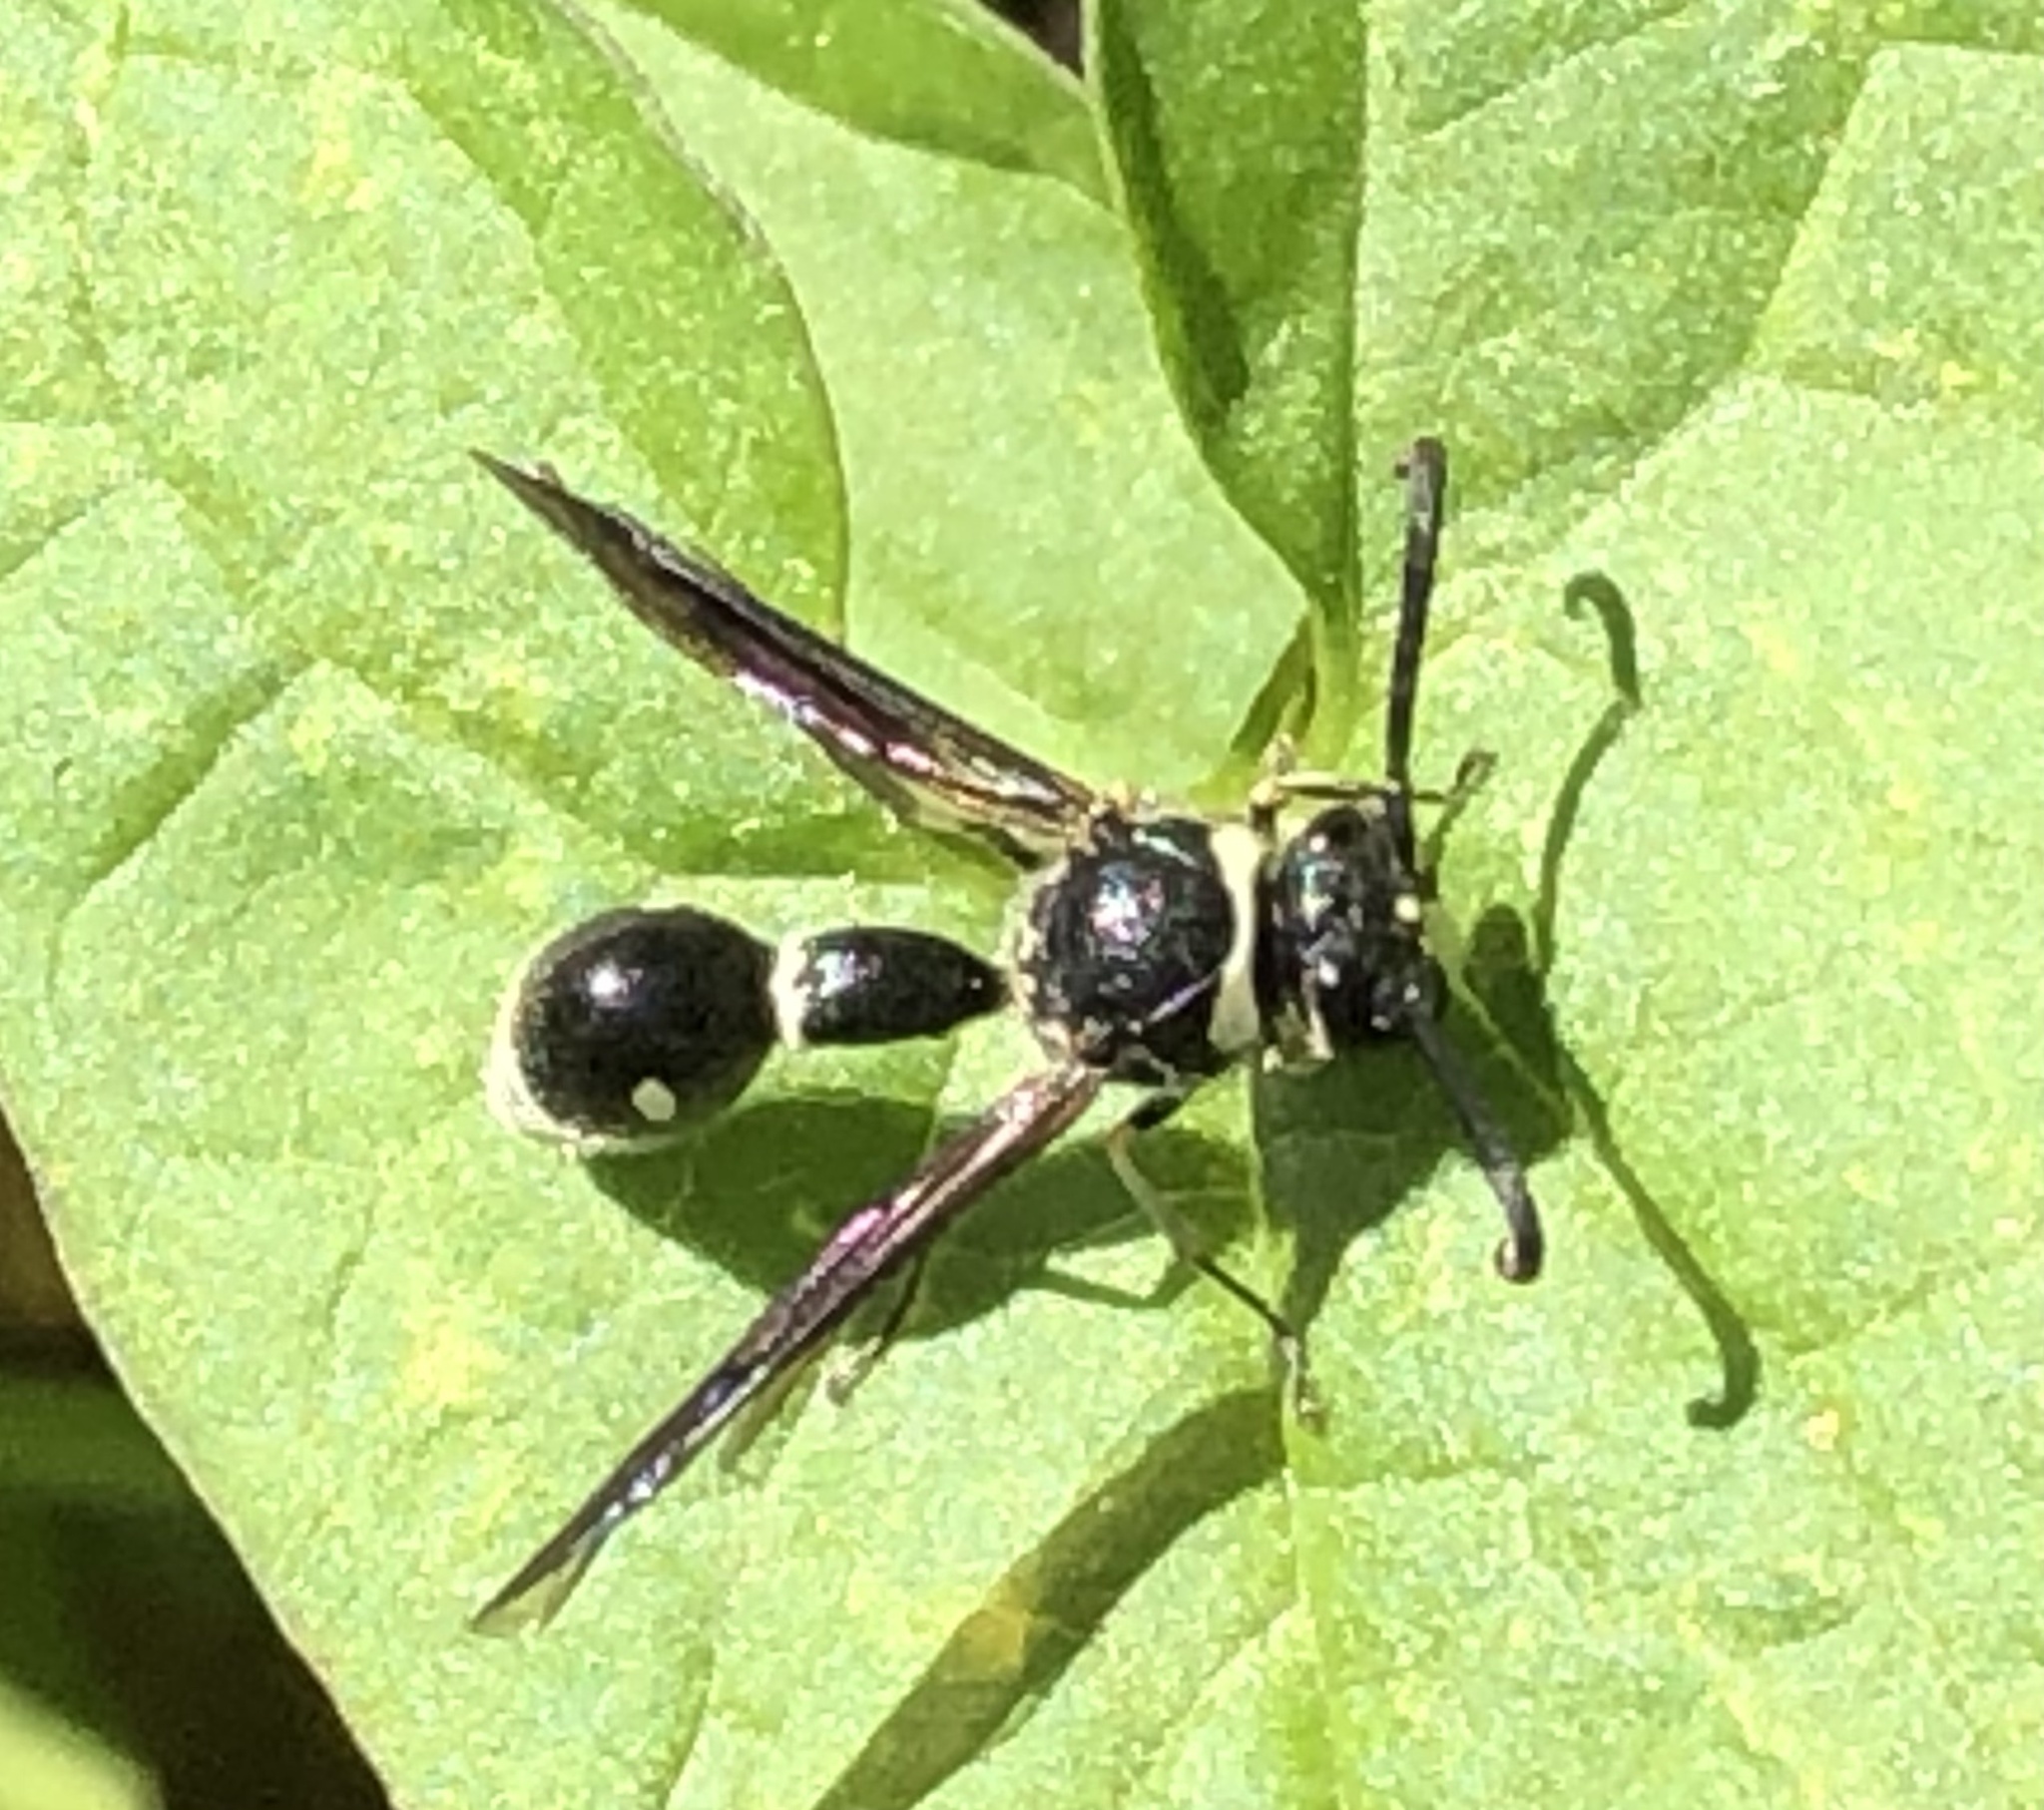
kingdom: Animalia
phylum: Arthropoda
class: Insecta
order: Hymenoptera
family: Vespidae
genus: Eumenes
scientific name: Eumenes fraternus
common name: Fraternal potter wasp
